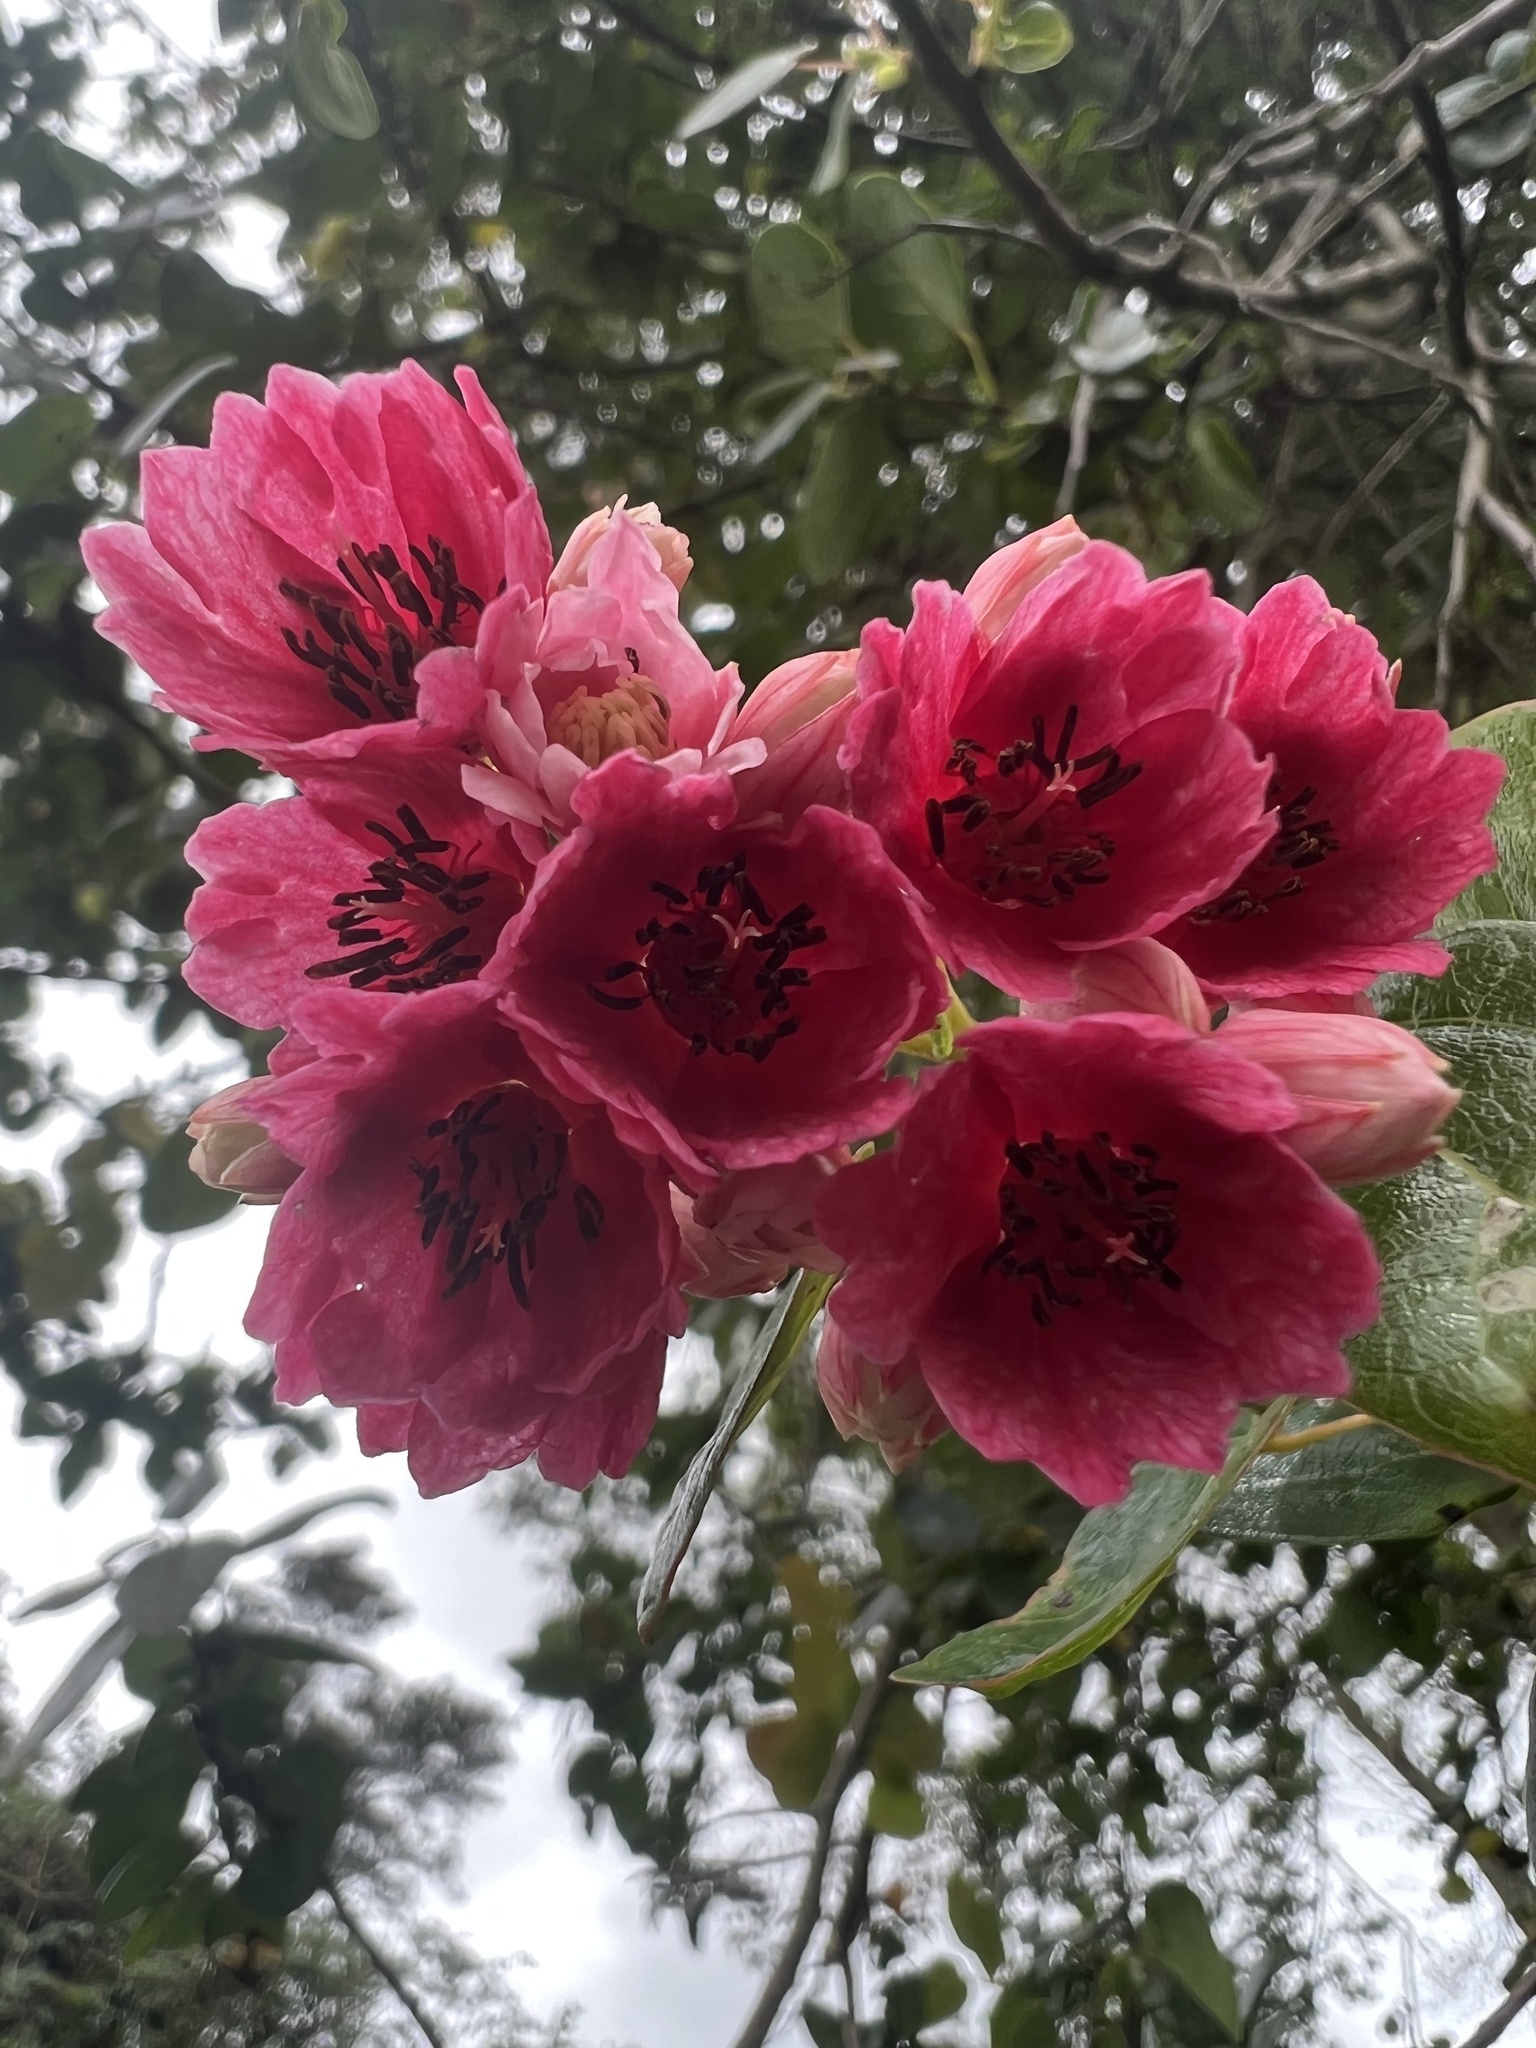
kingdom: Plantae
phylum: Tracheophyta
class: Magnoliopsida
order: Oxalidales
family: Elaeocarpaceae
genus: Vallea
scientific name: Vallea stipularis
